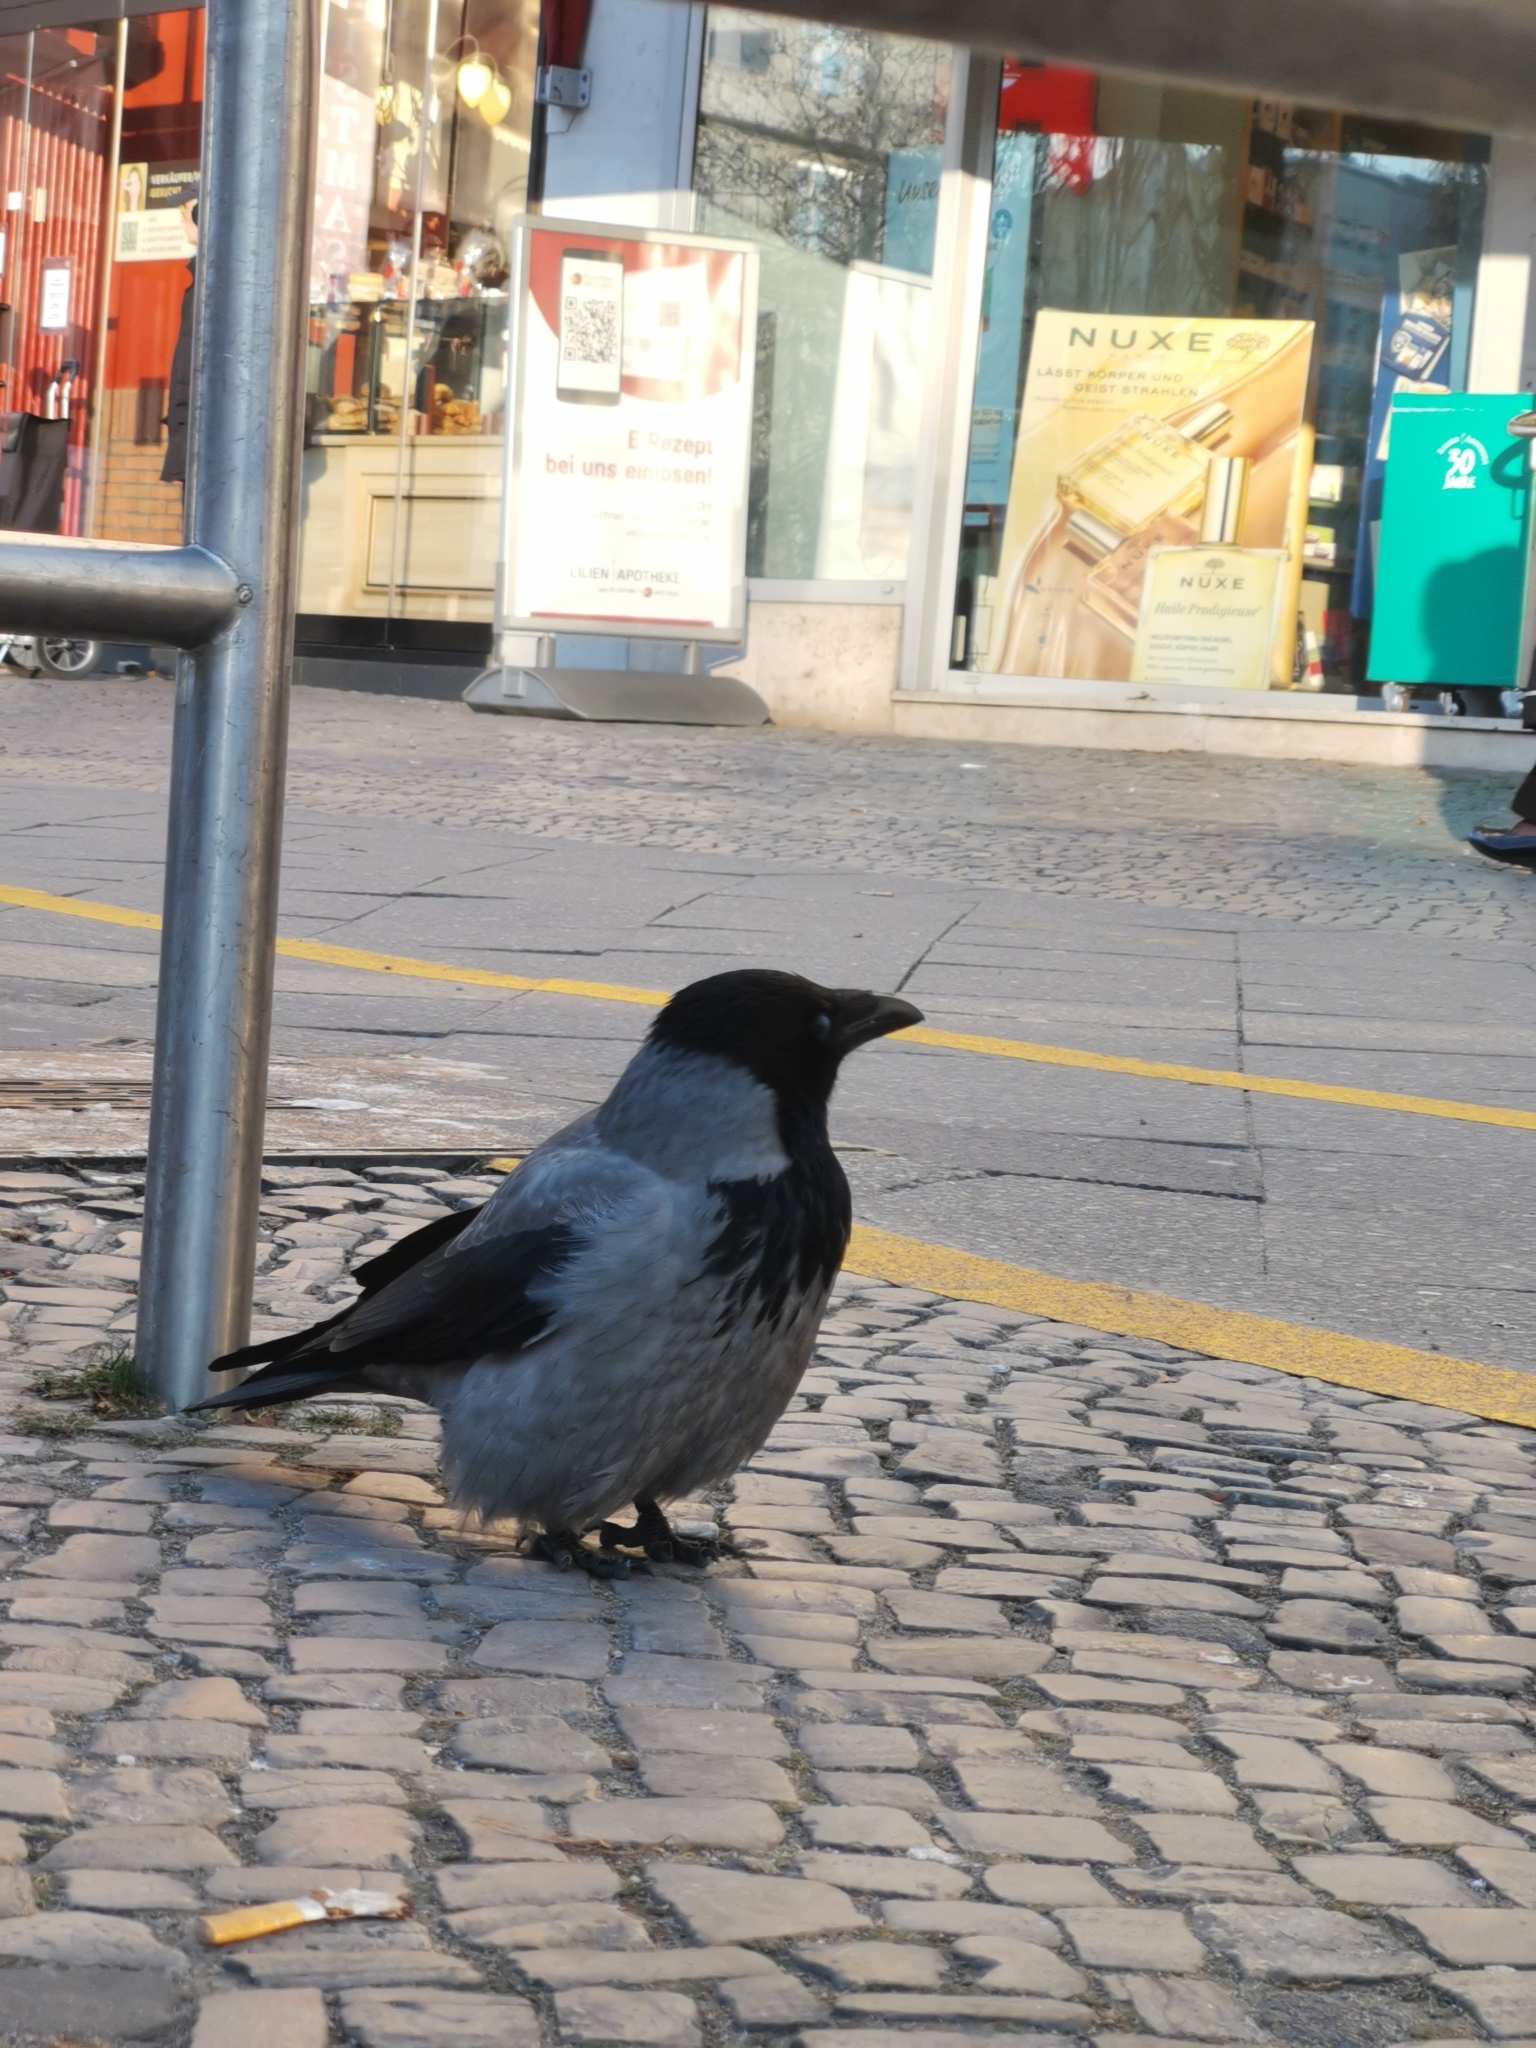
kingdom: Animalia
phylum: Chordata
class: Aves
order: Passeriformes
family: Corvidae
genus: Corvus
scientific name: Corvus cornix
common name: Hooded crow
